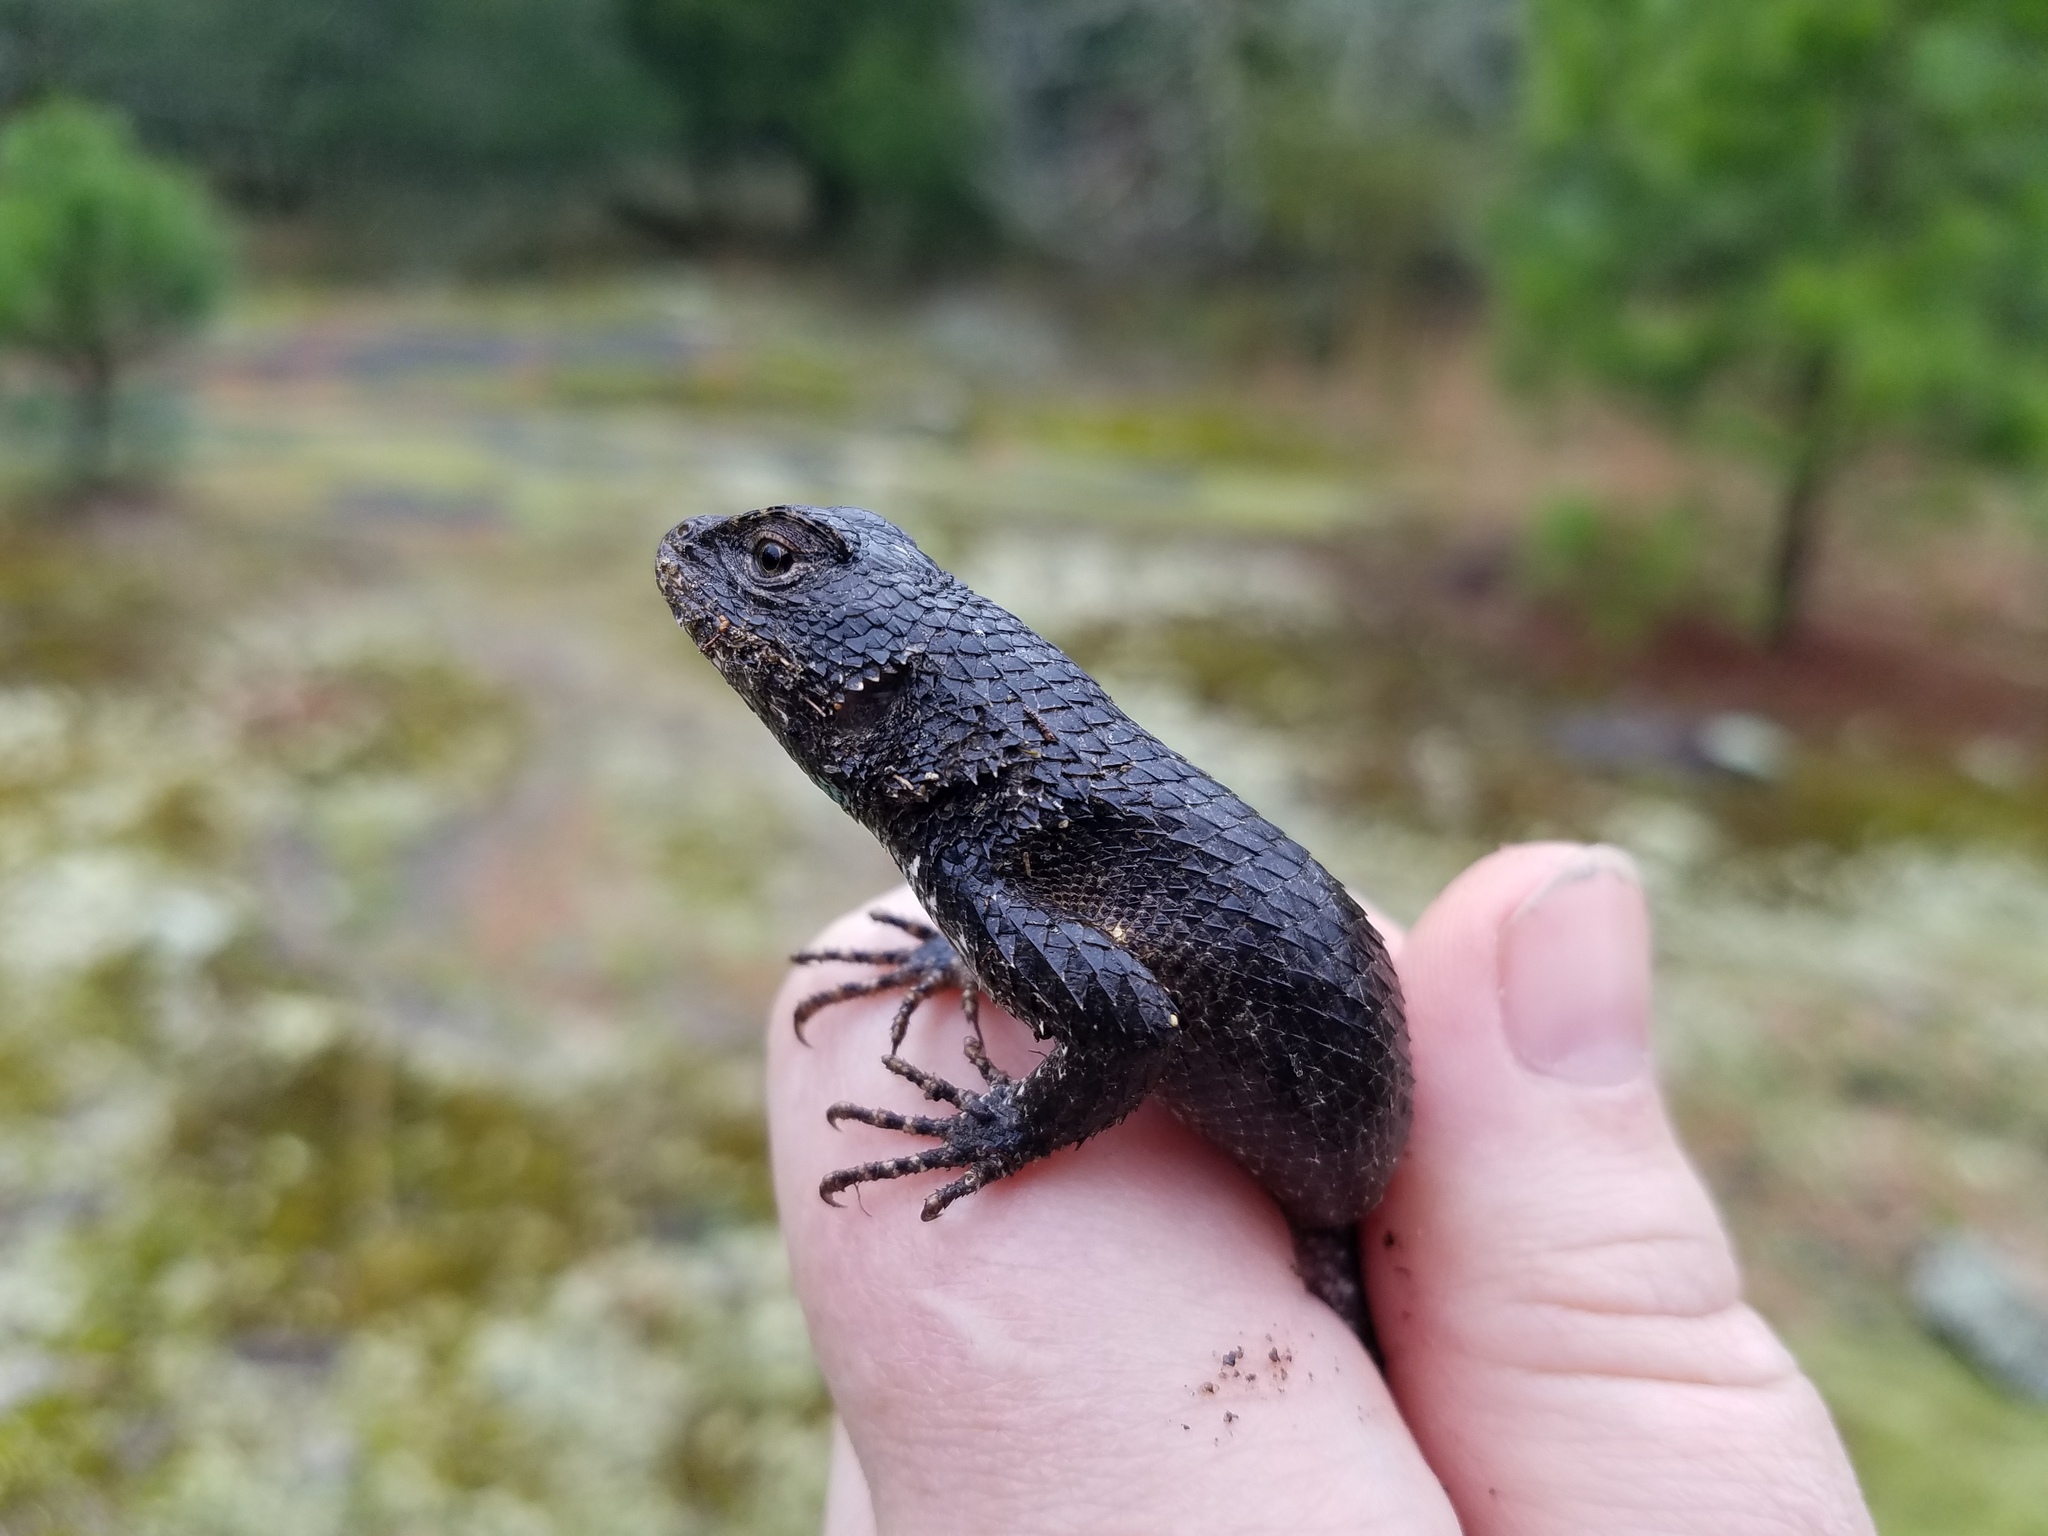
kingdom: Animalia
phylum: Chordata
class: Squamata
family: Phrynosomatidae
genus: Sceloporus
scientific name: Sceloporus undulatus
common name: Eastern fence lizard
